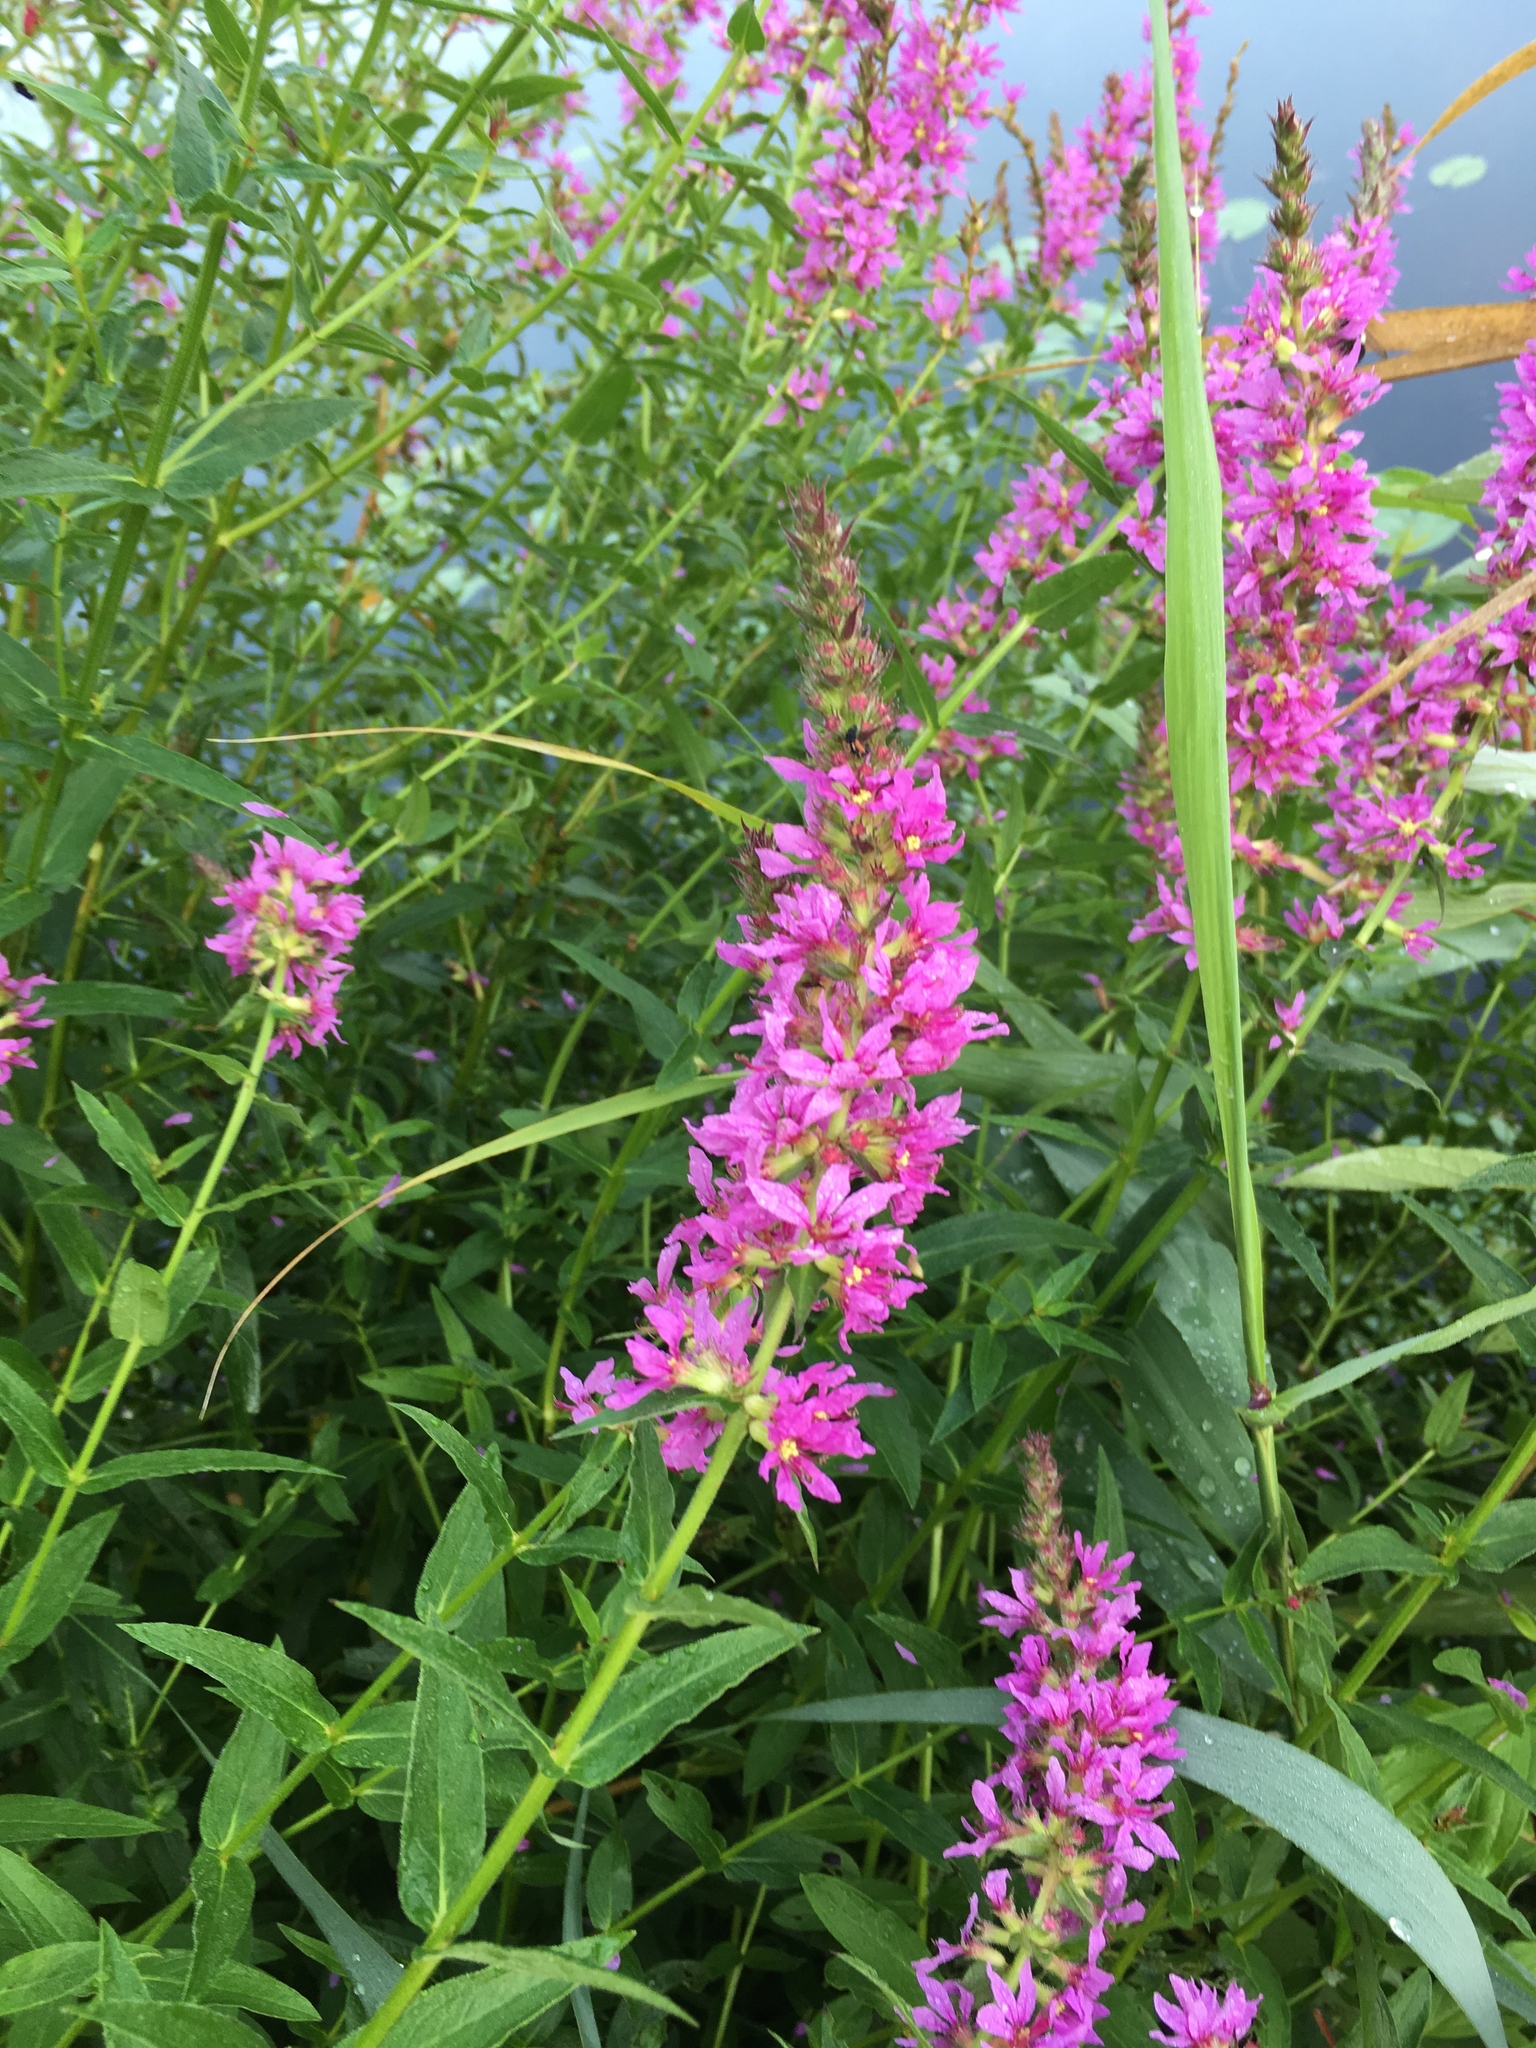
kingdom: Plantae
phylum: Tracheophyta
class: Magnoliopsida
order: Myrtales
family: Lythraceae
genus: Lythrum
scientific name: Lythrum salicaria
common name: Purple loosestrife
